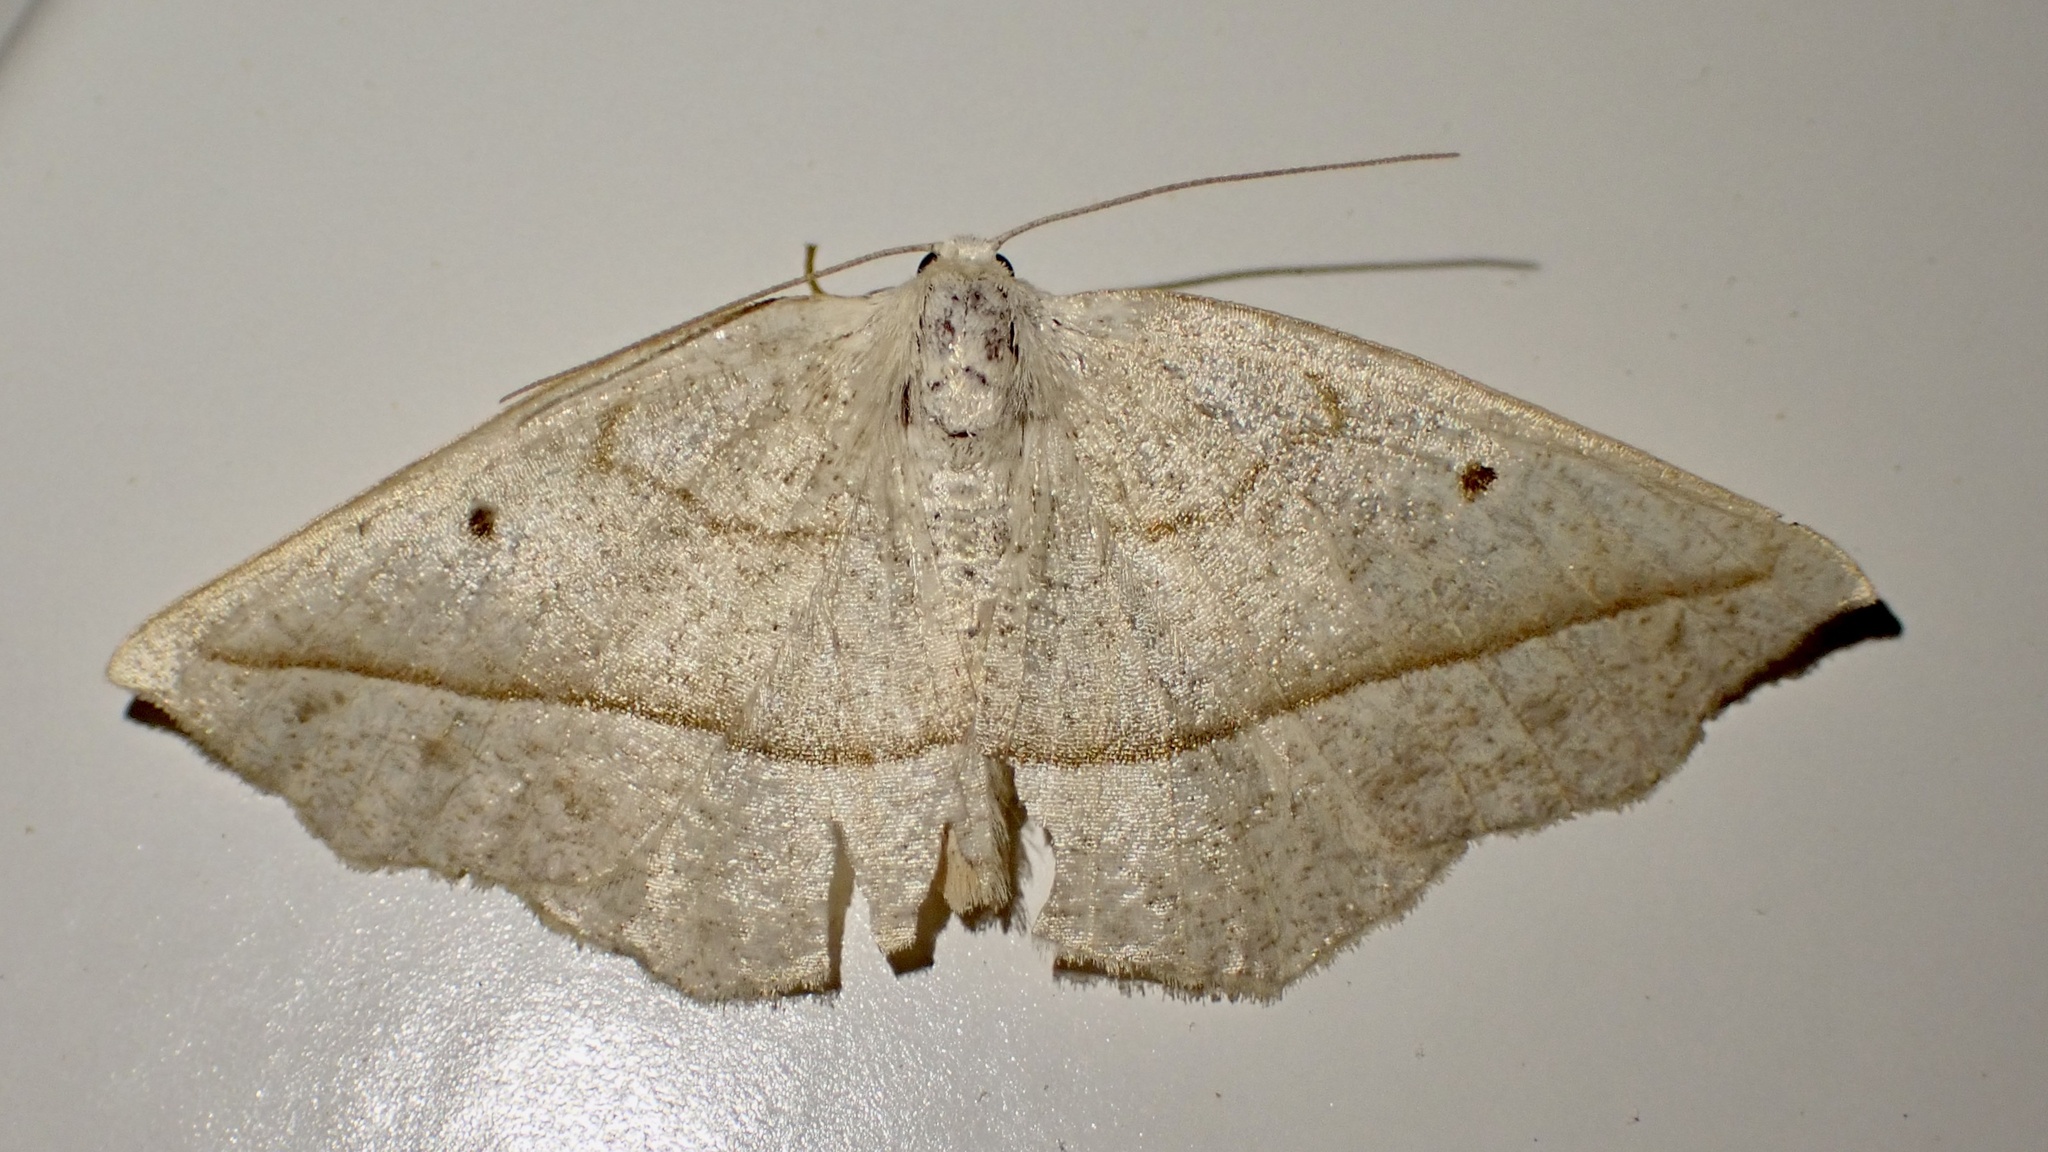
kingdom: Animalia
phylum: Arthropoda
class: Insecta
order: Lepidoptera
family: Geometridae
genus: Eusarca
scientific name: Eusarca confusaria
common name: Confused eusarca
